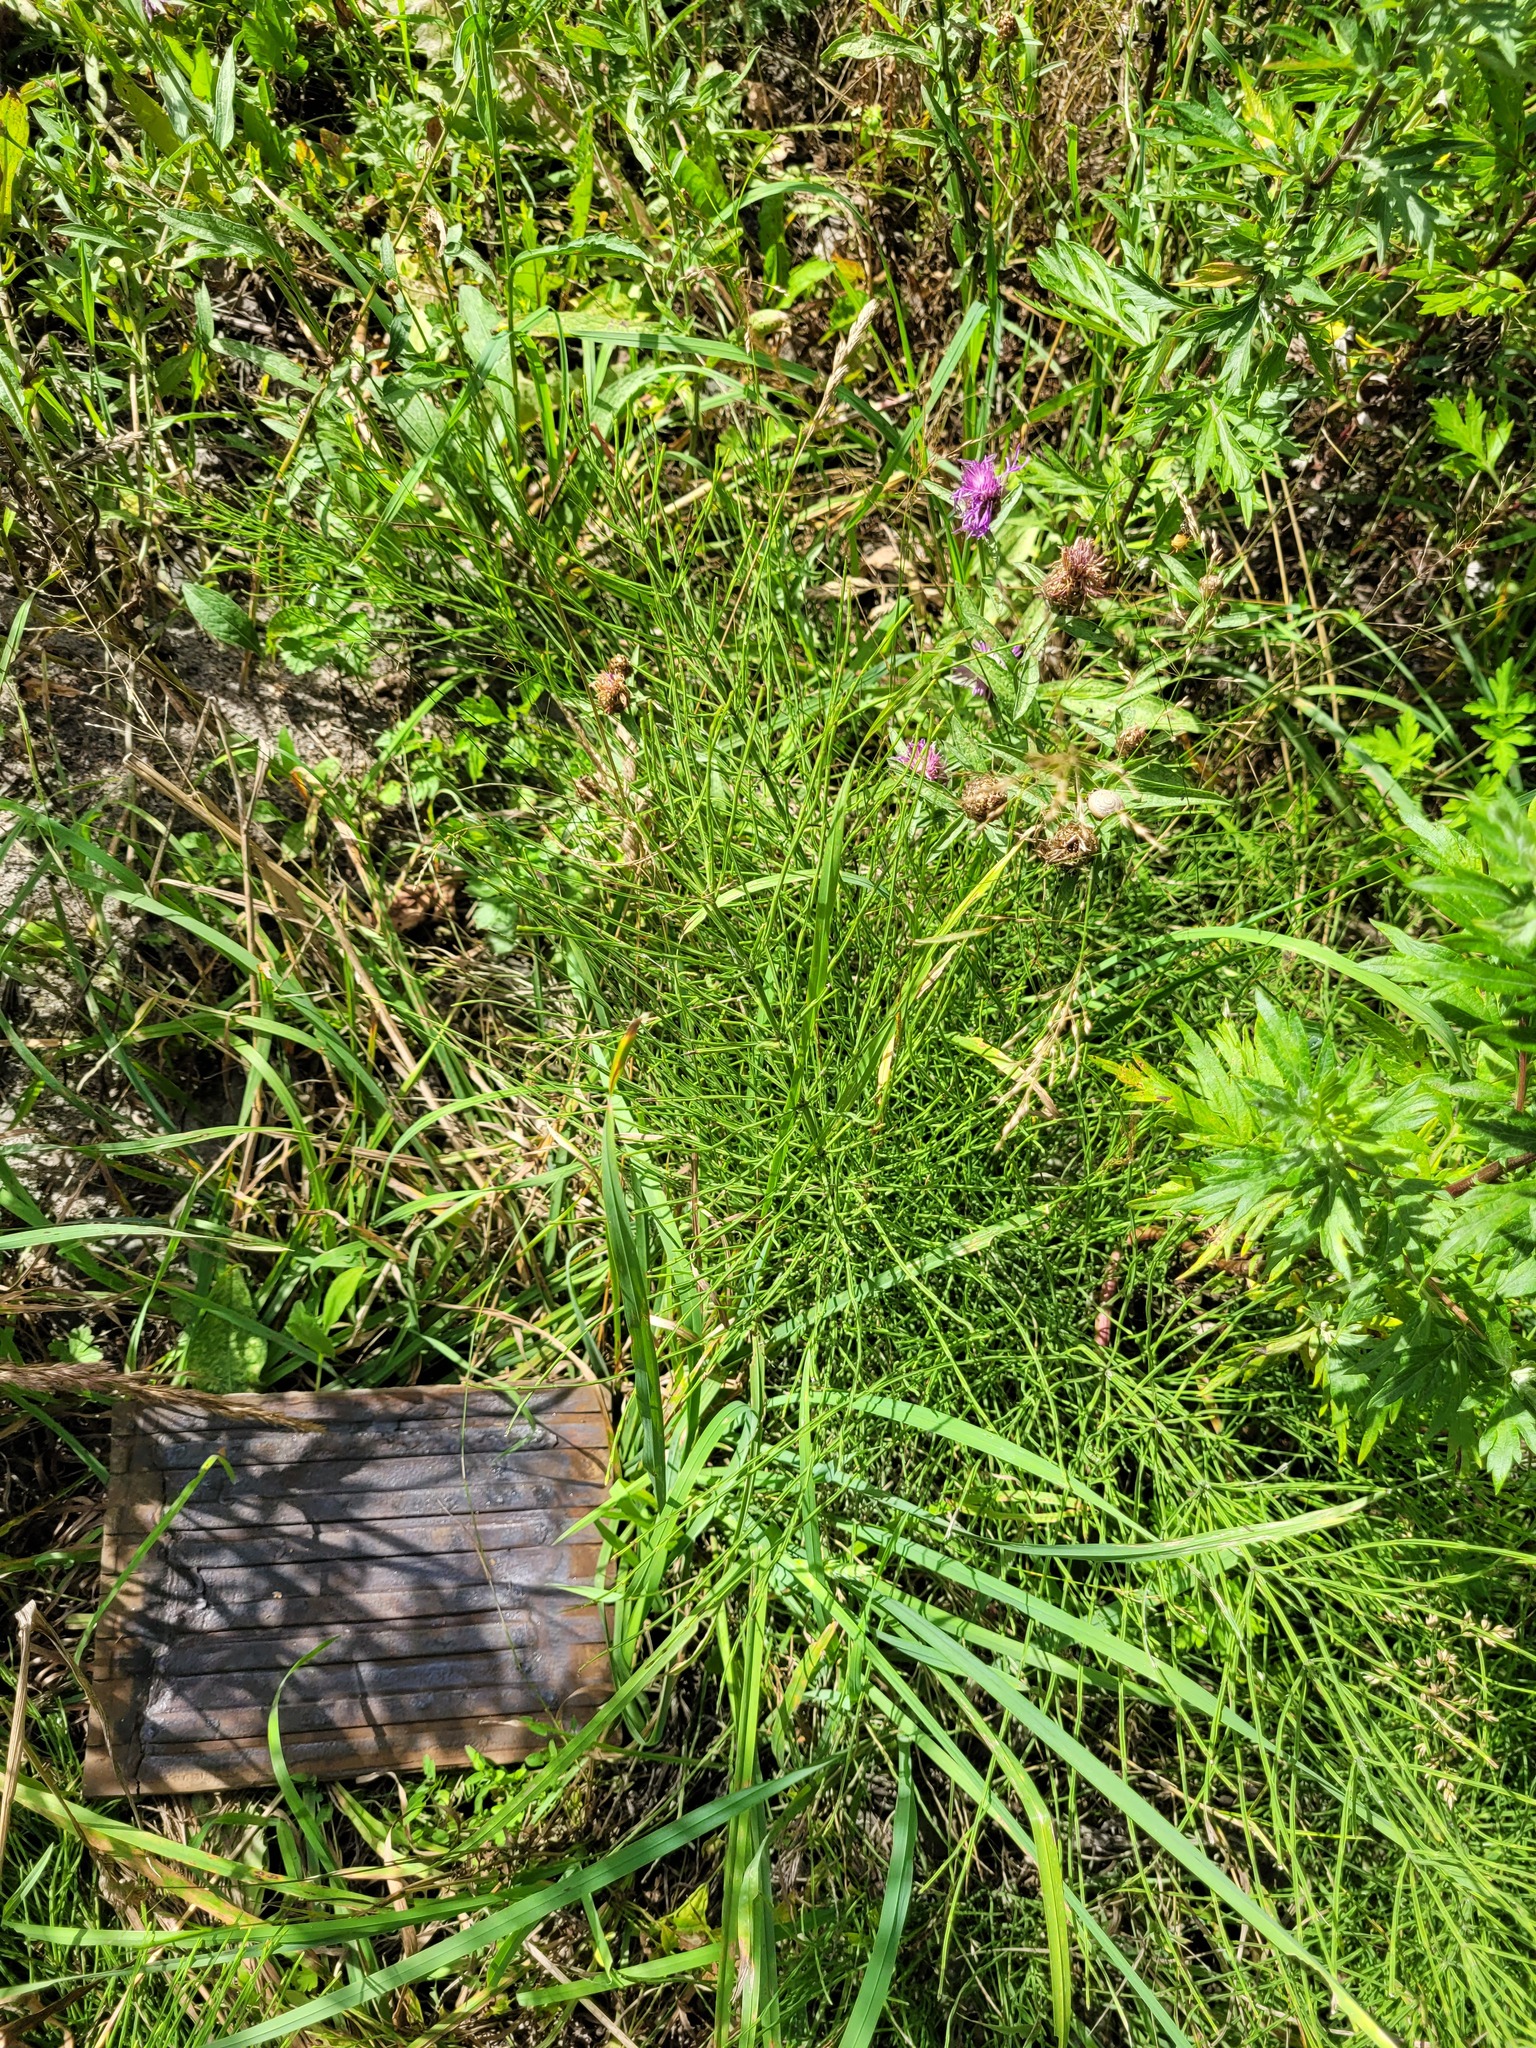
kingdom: Plantae
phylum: Tracheophyta
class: Magnoliopsida
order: Asterales
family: Asteraceae
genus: Centaurea
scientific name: Centaurea jacea
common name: Brown knapweed
